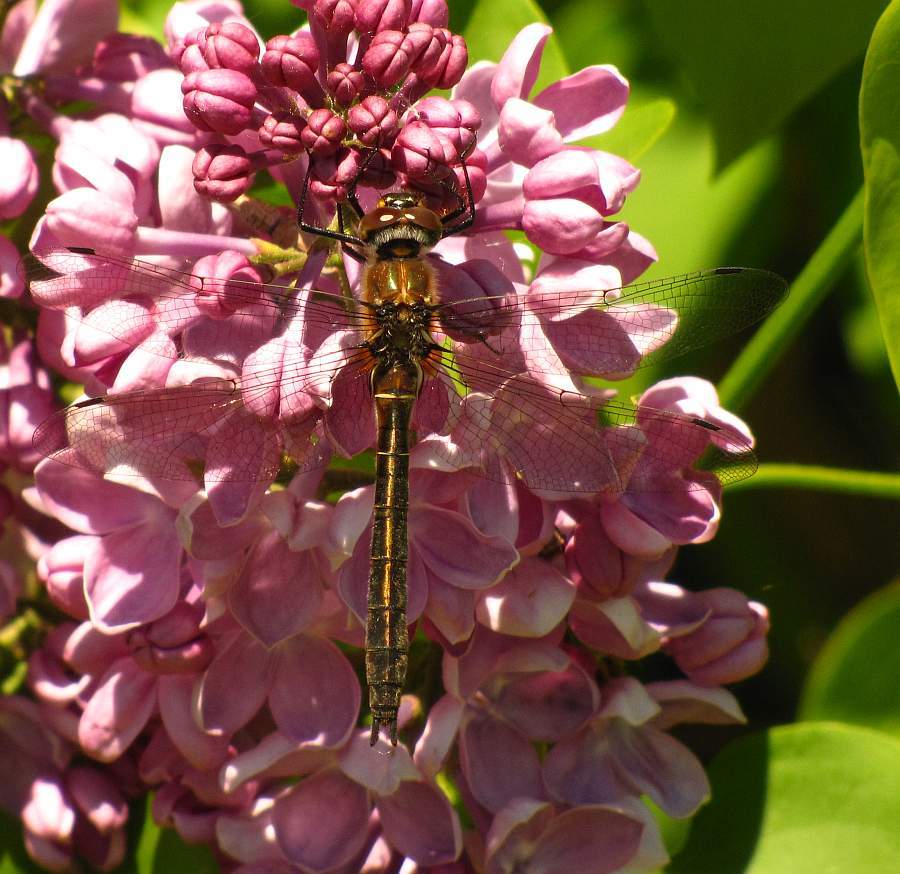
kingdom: Animalia
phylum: Arthropoda
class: Insecta
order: Odonata
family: Corduliidae
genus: Cordulia
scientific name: Cordulia shurtleffii
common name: American emerald
